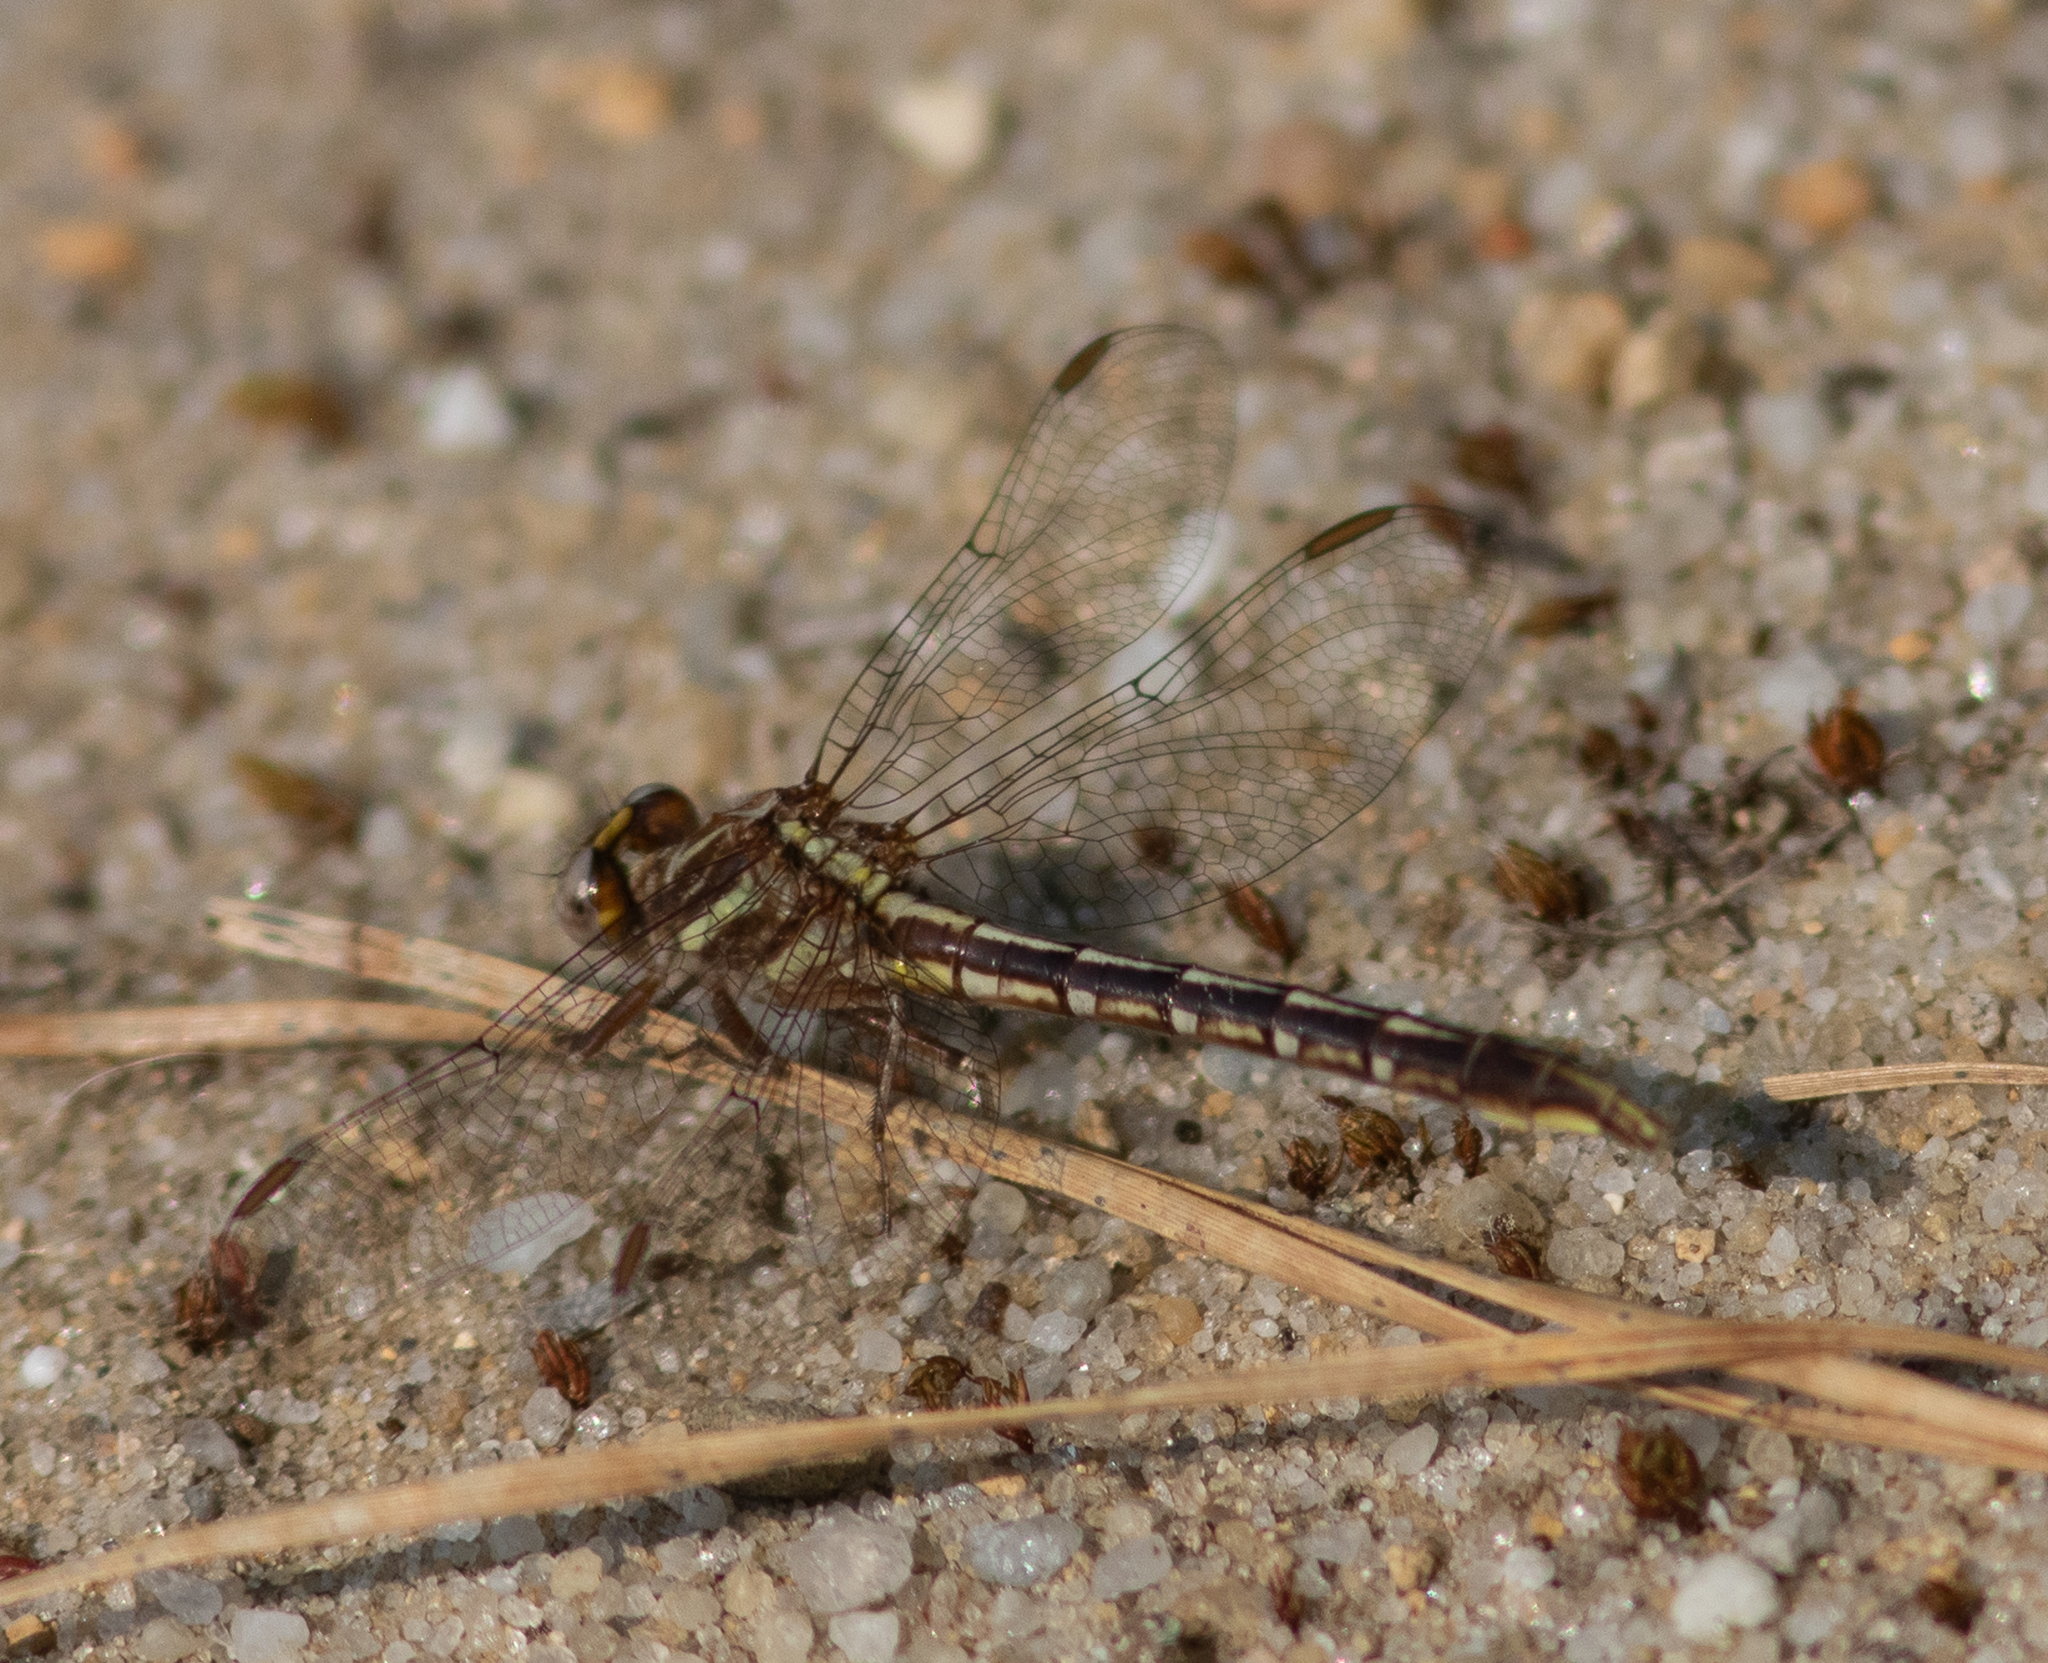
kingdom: Animalia
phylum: Arthropoda
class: Insecta
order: Odonata
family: Gomphidae
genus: Phanogomphus
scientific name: Phanogomphus exilis
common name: Lancet clubtail
